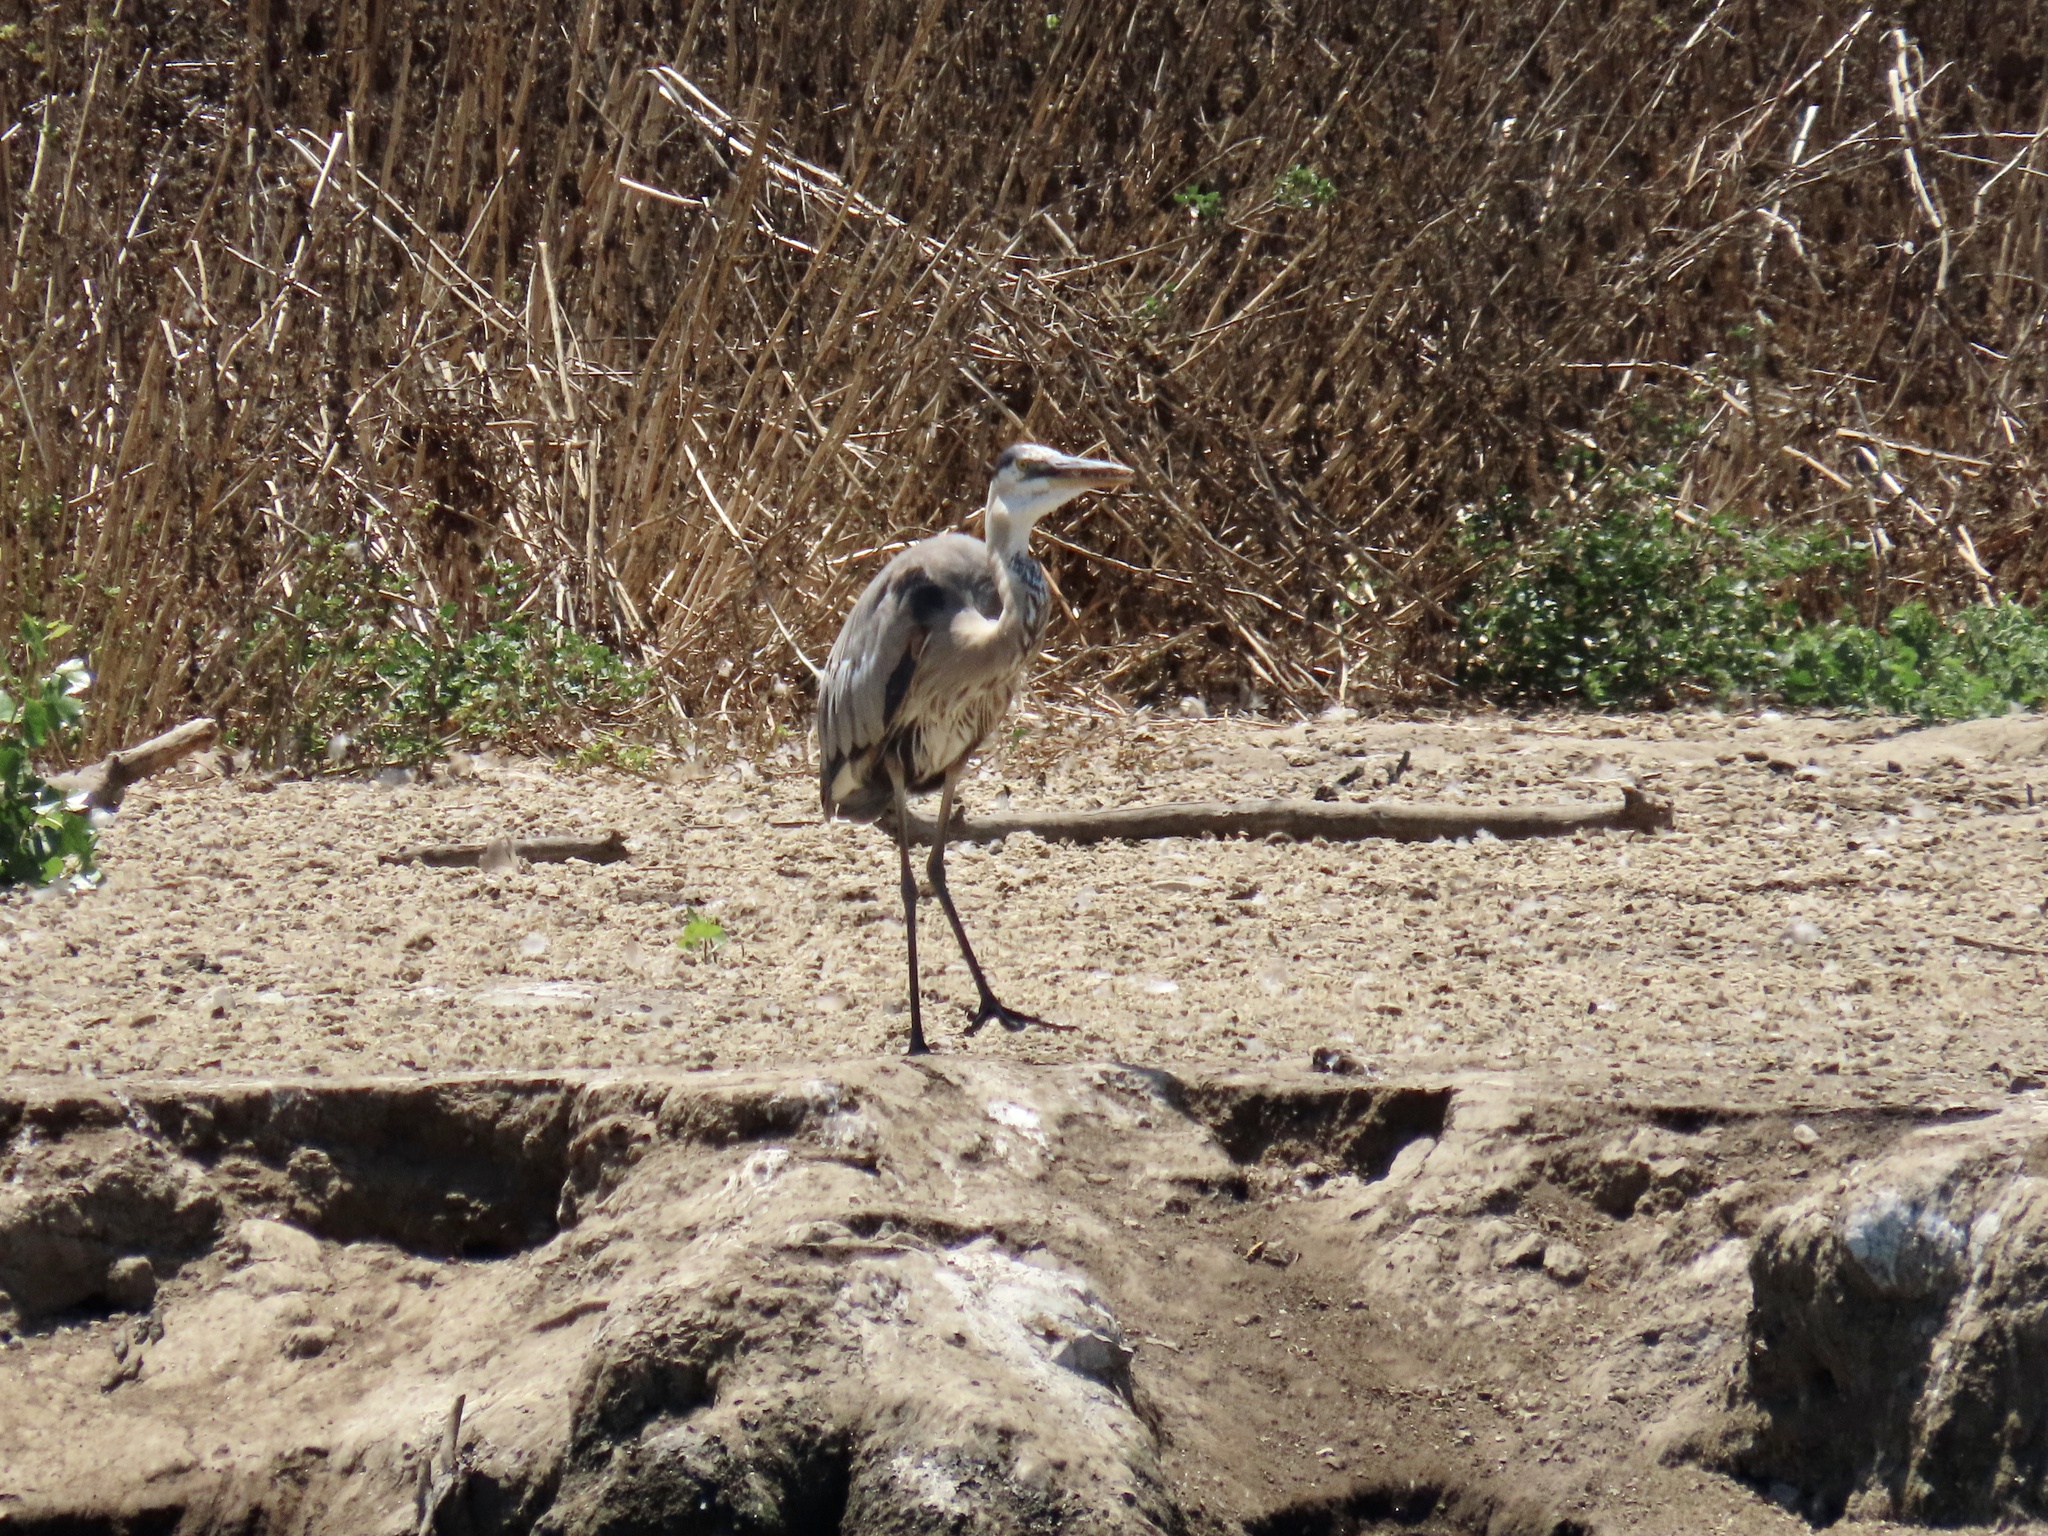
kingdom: Animalia
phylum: Chordata
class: Aves
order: Pelecaniformes
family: Ardeidae
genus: Ardea
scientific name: Ardea herodias
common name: Great blue heron
